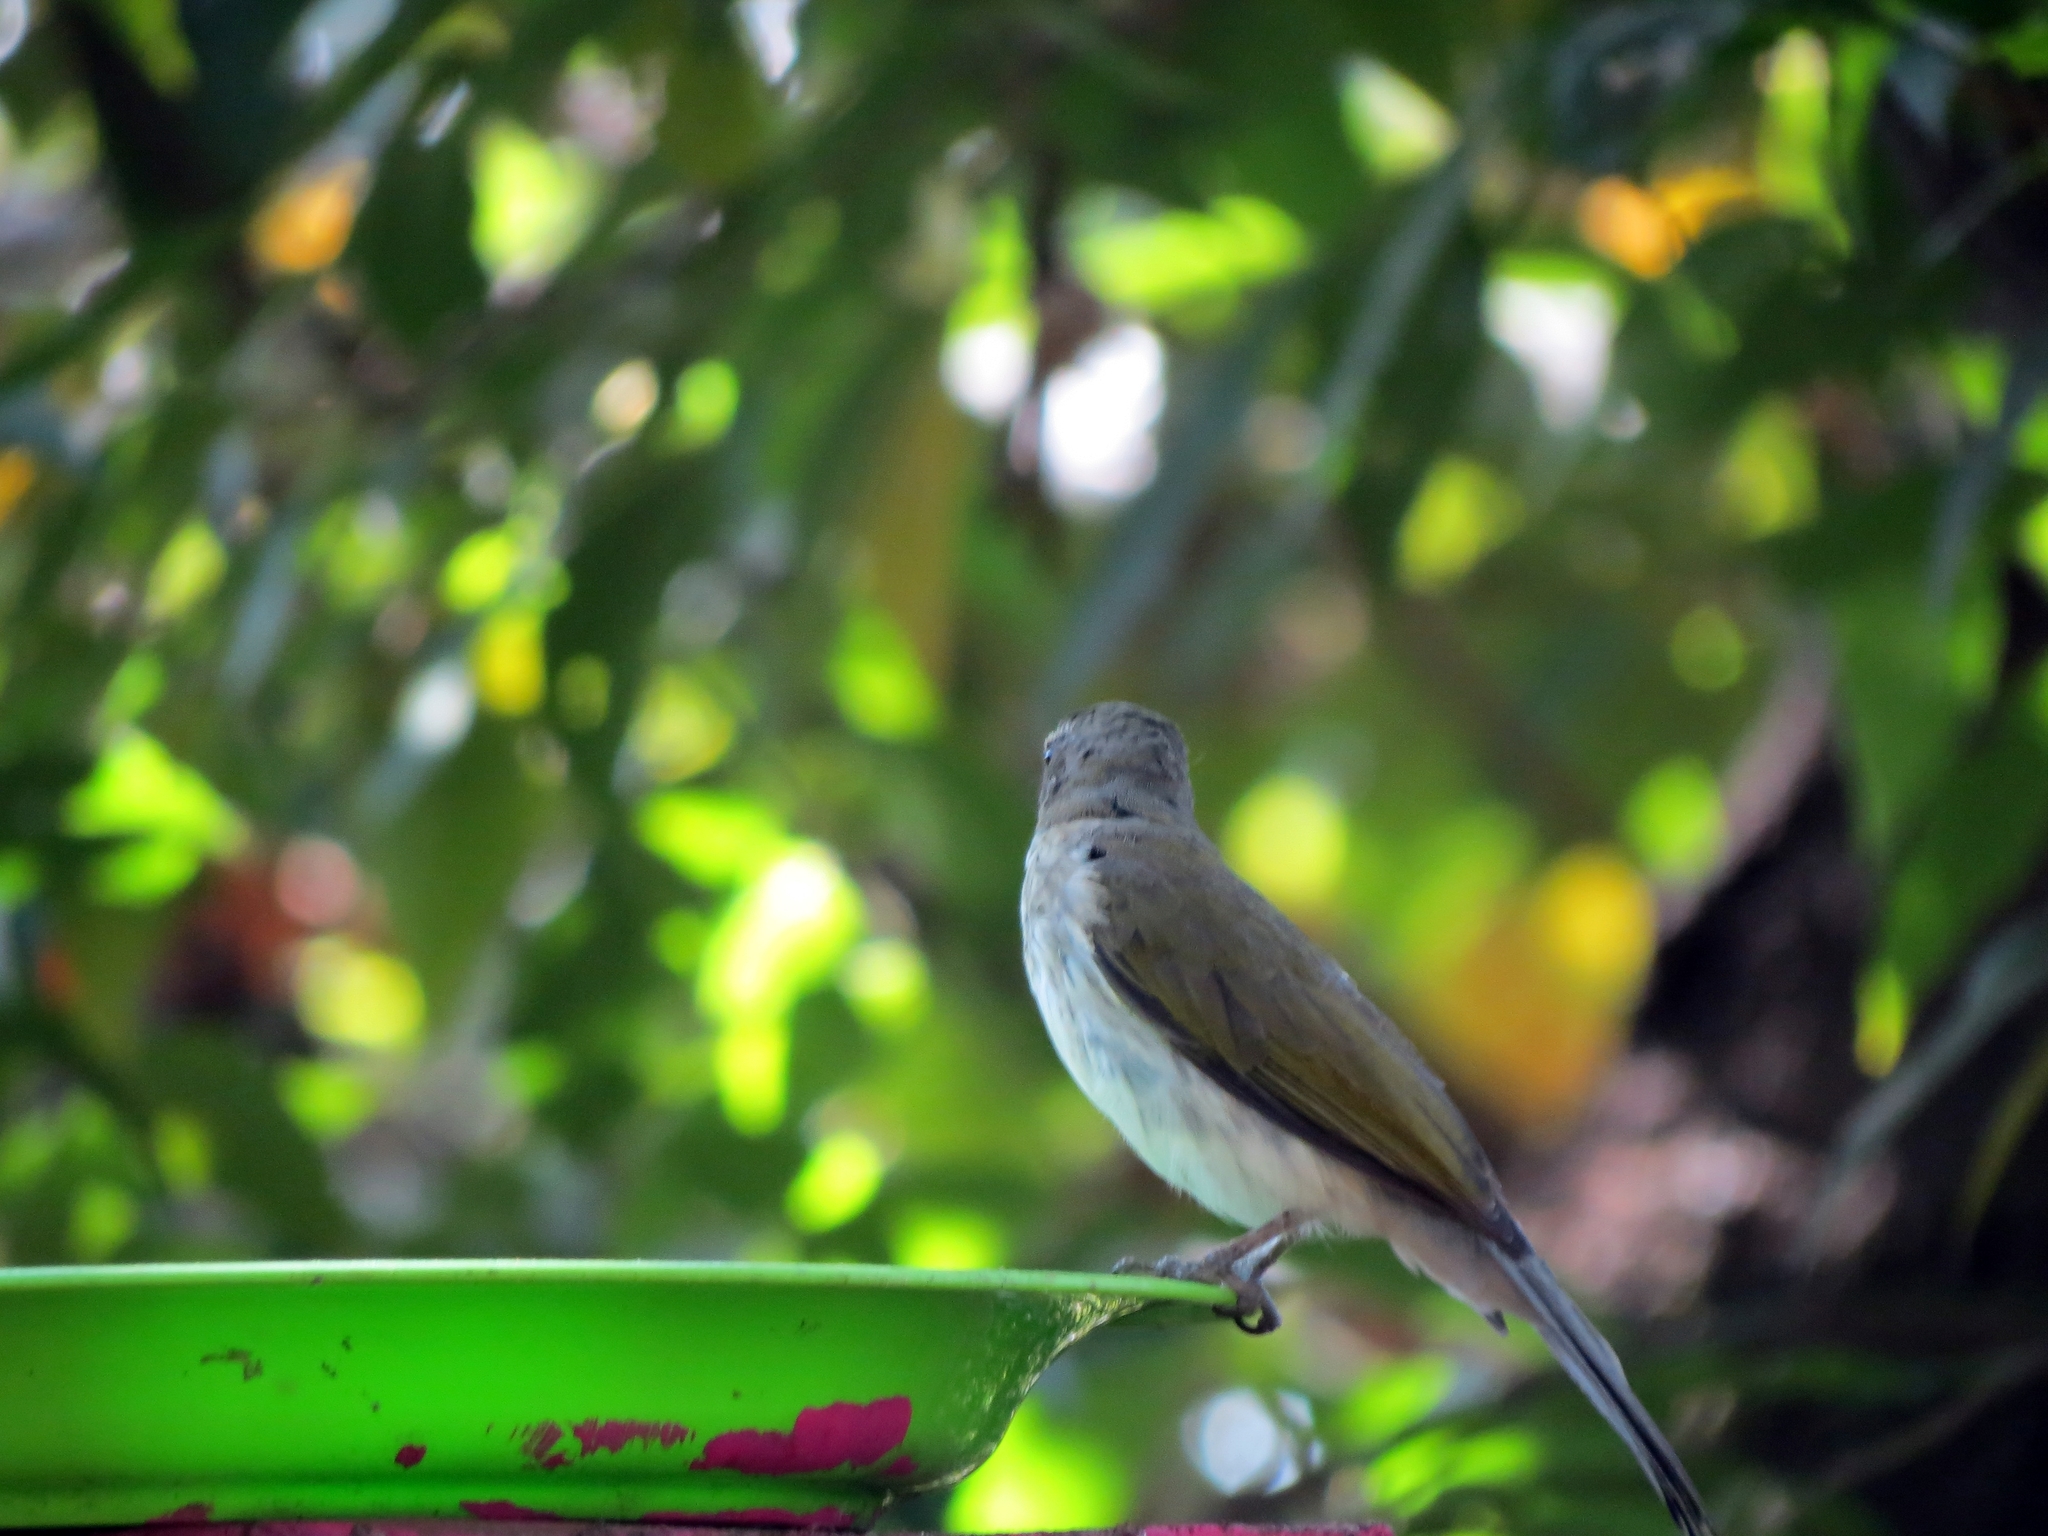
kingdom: Animalia
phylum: Chordata
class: Aves
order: Passeriformes
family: Thraupidae
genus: Saltator
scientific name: Saltator striatipectus
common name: Streaked saltator
